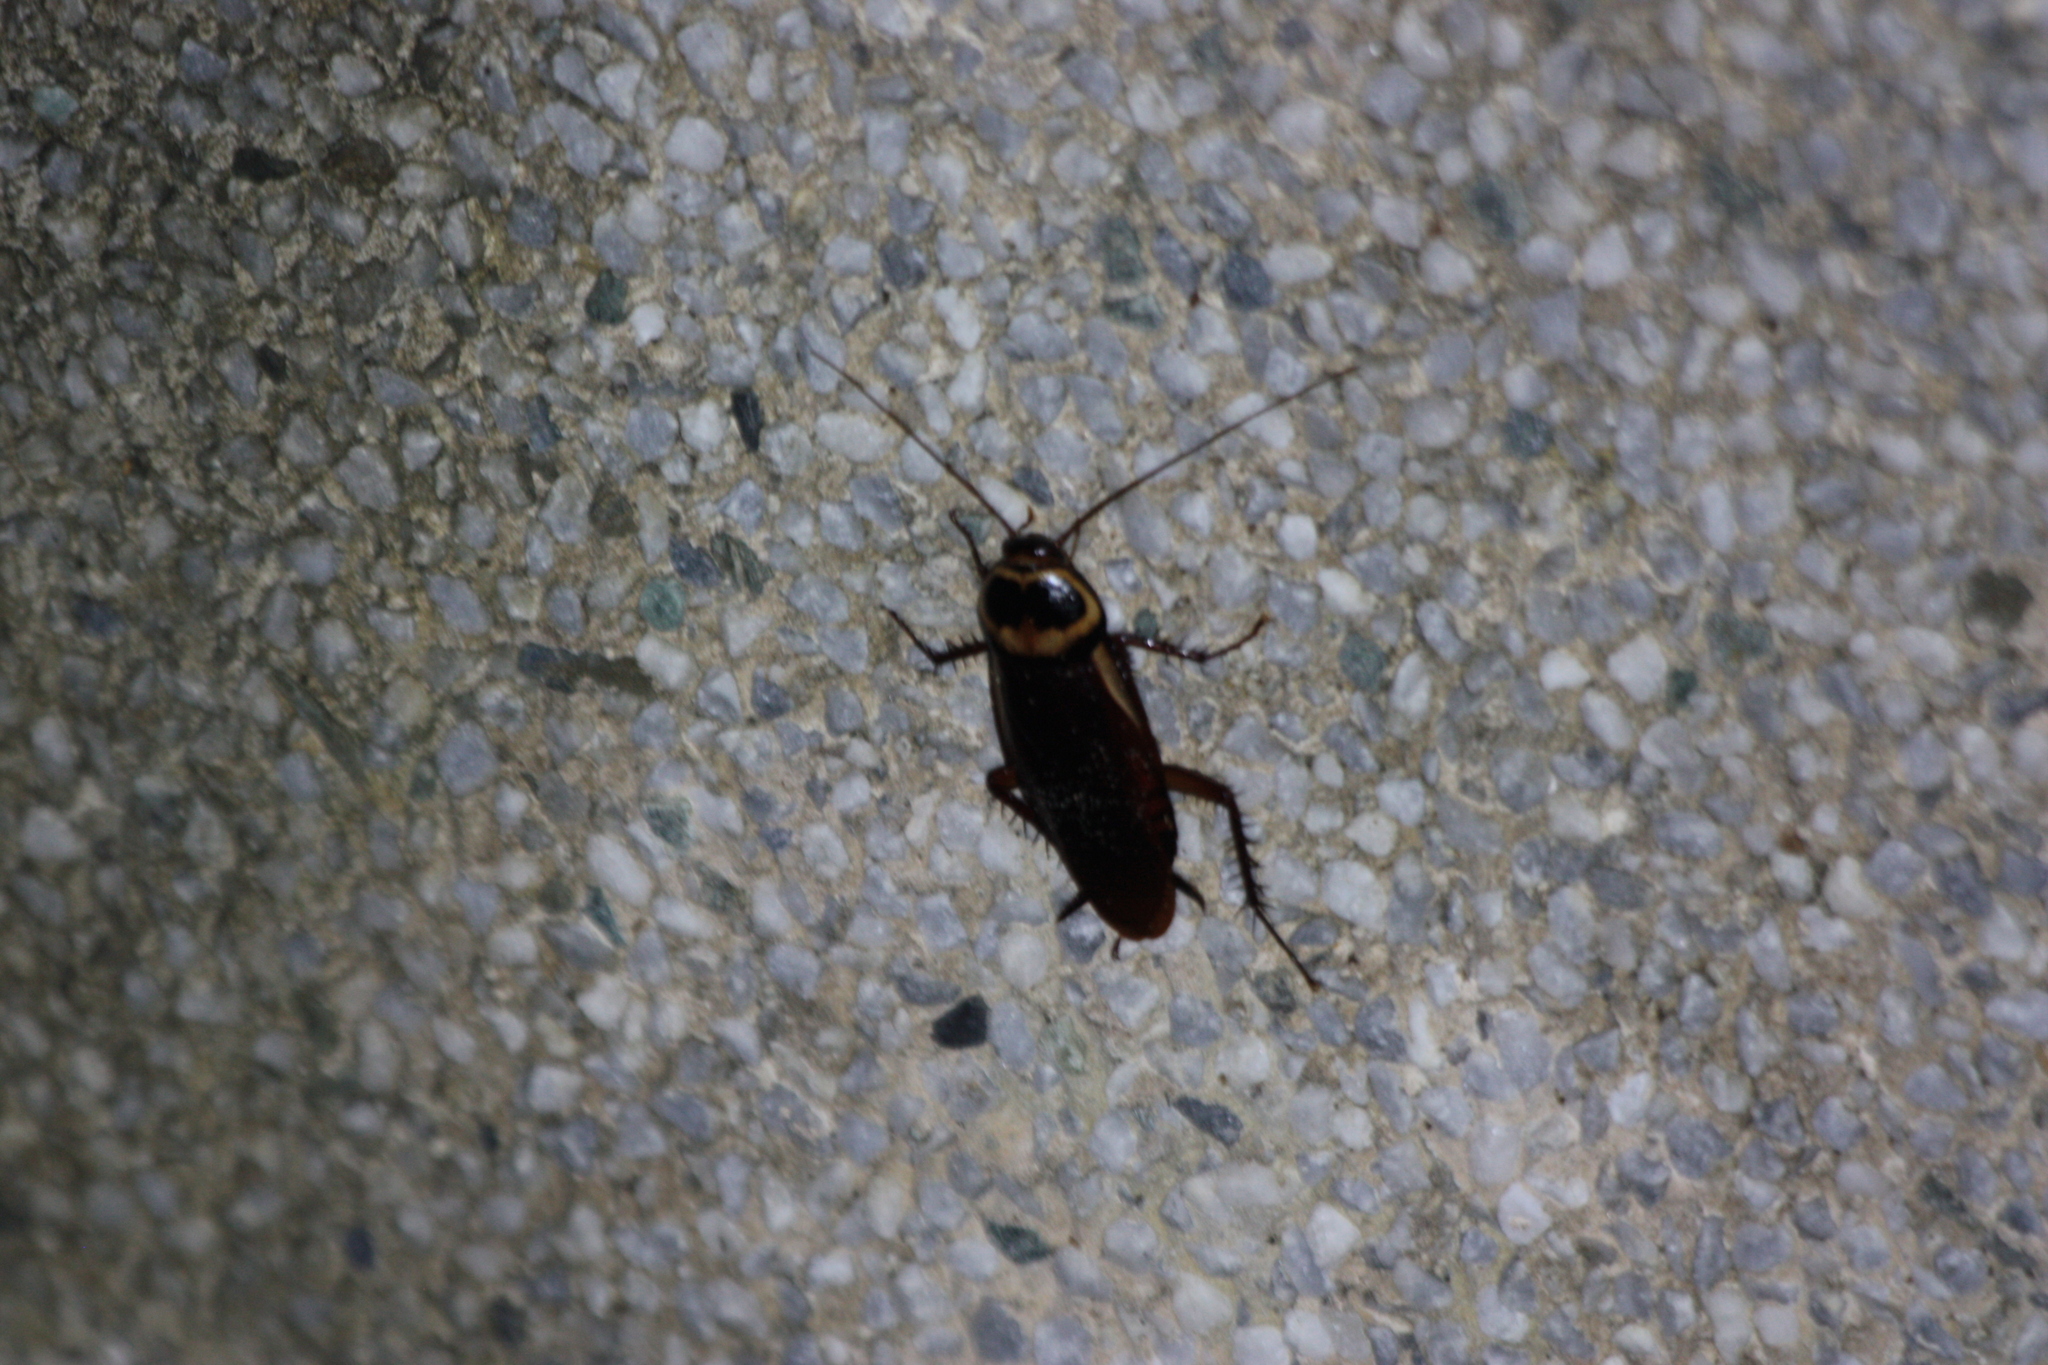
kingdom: Animalia
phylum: Arthropoda
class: Insecta
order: Blattodea
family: Blattidae
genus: Periplaneta
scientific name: Periplaneta australasiae
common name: Australian cockroach
